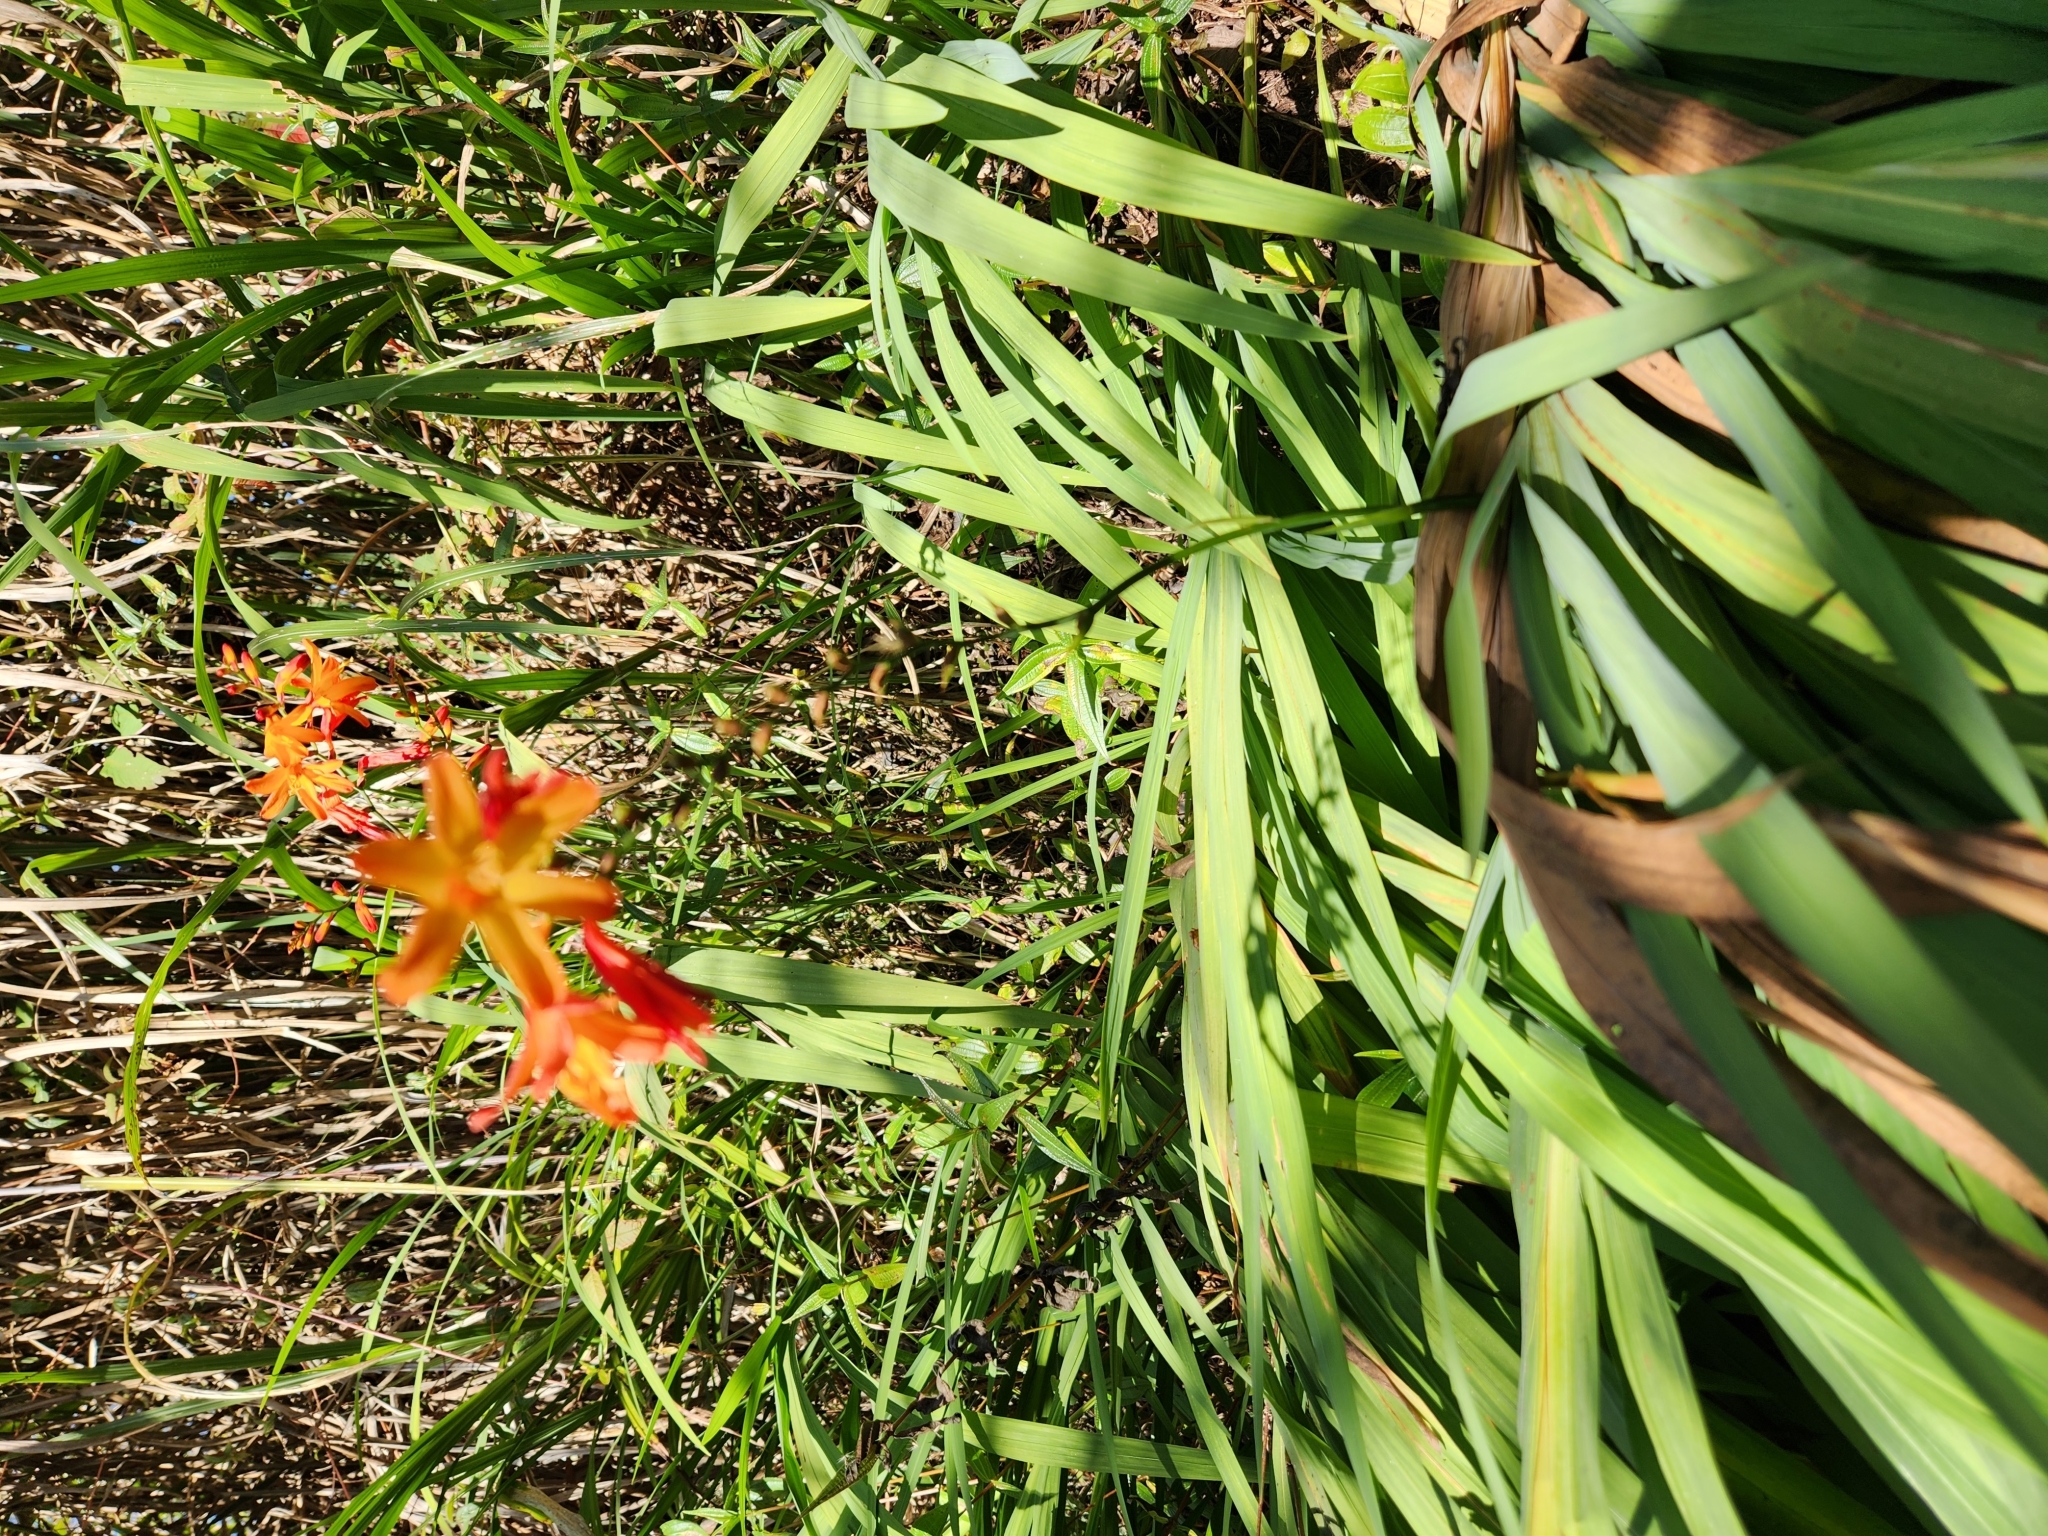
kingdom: Plantae
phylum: Tracheophyta
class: Liliopsida
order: Asparagales
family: Iridaceae
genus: Crocosmia
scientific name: Crocosmia crocosmiiflora
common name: Montbretia
